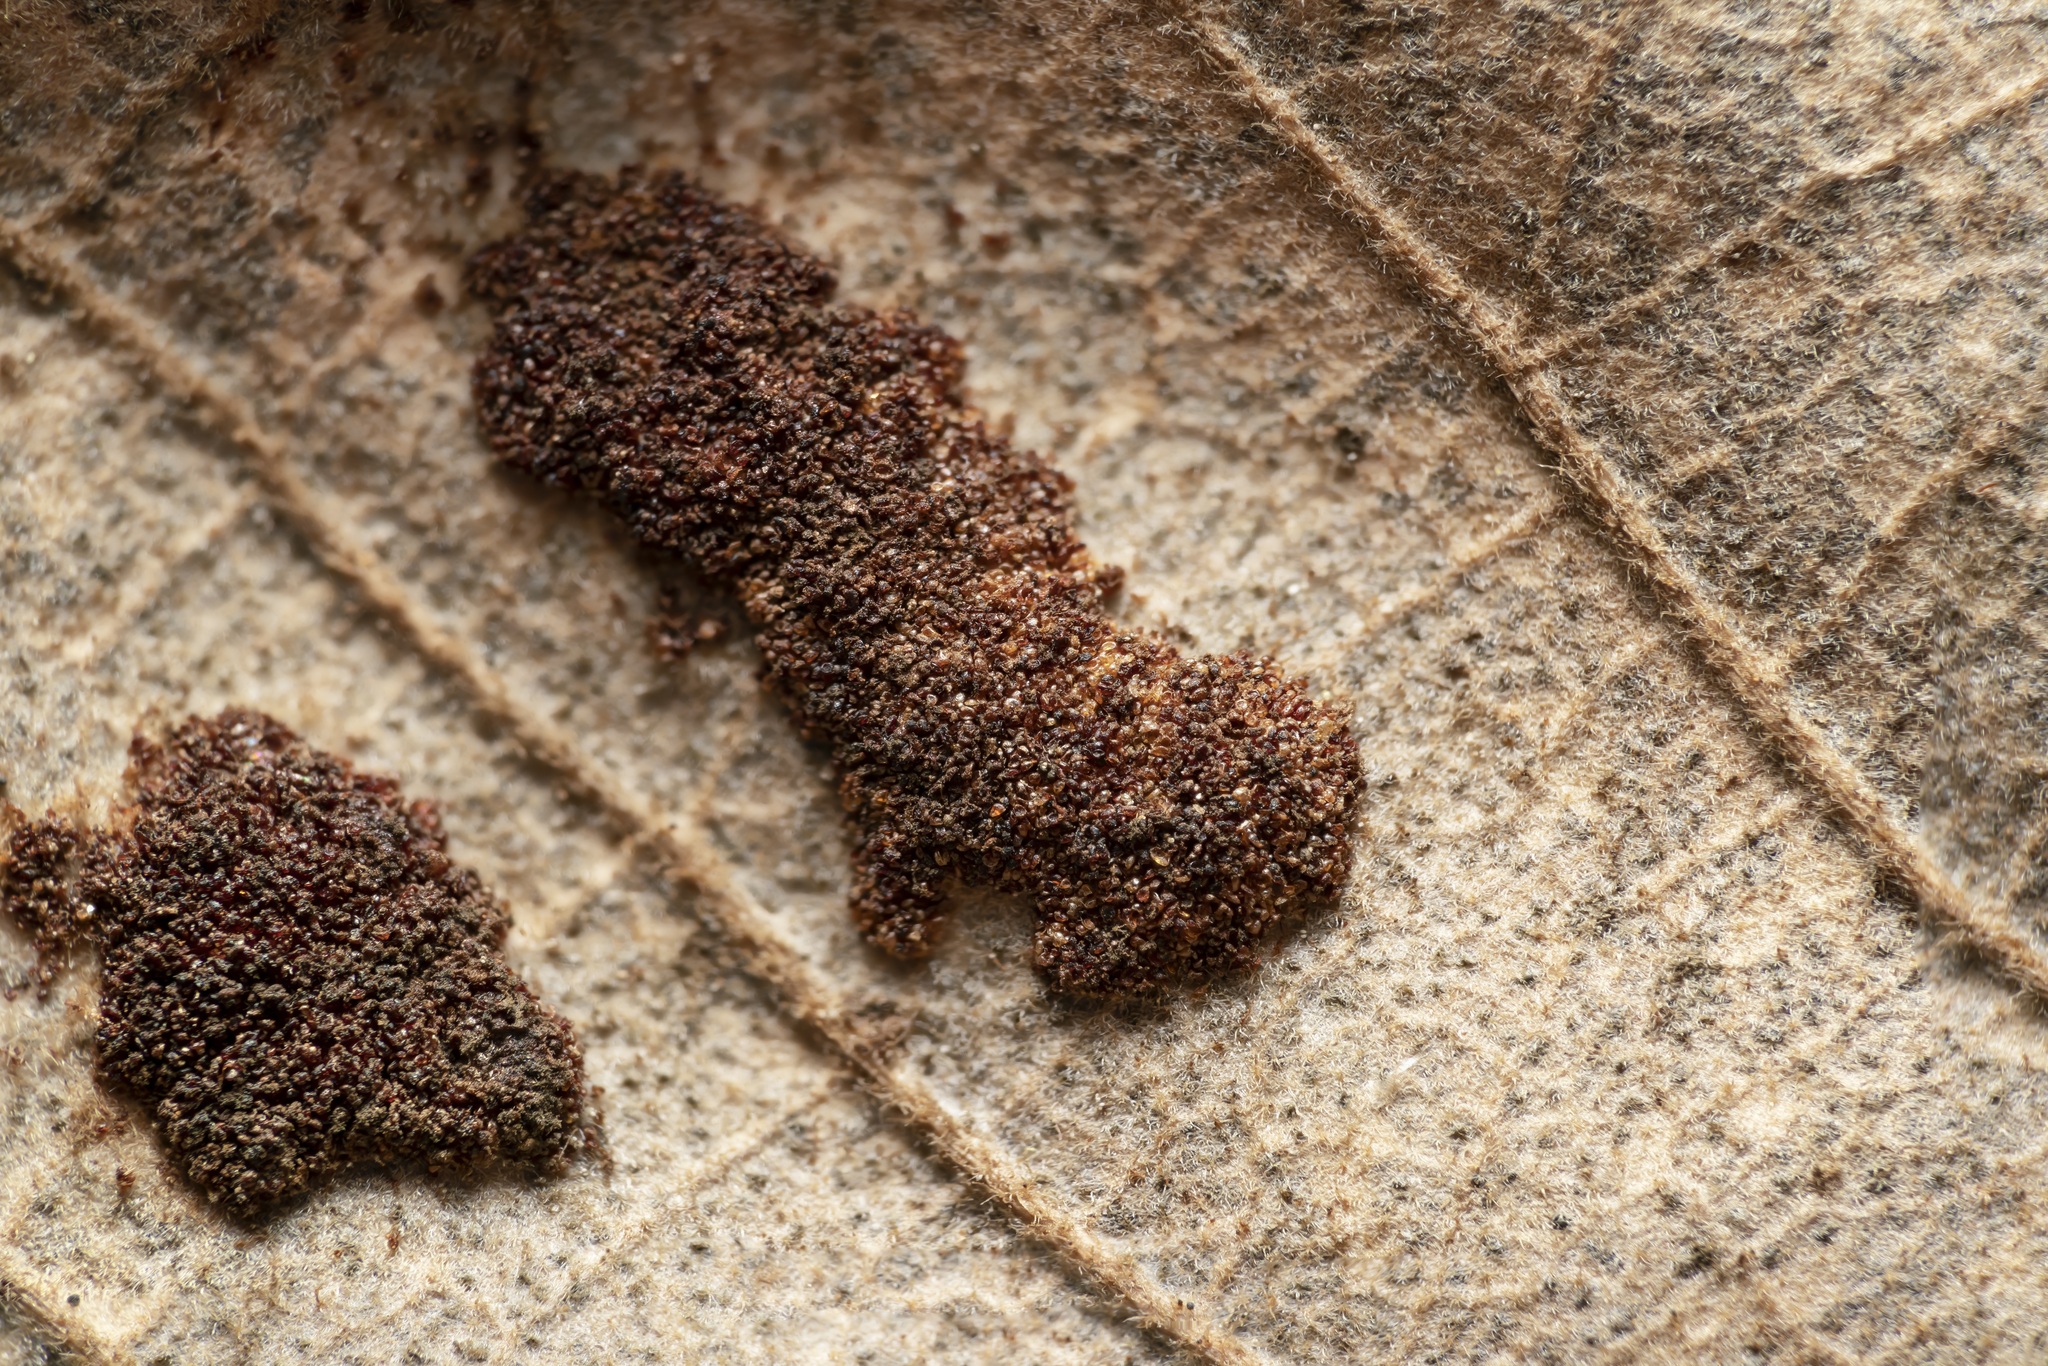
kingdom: Animalia
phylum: Arthropoda
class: Arachnida
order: Trombidiformes
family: Eriophyidae
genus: Aceria
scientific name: Aceria ilicis
